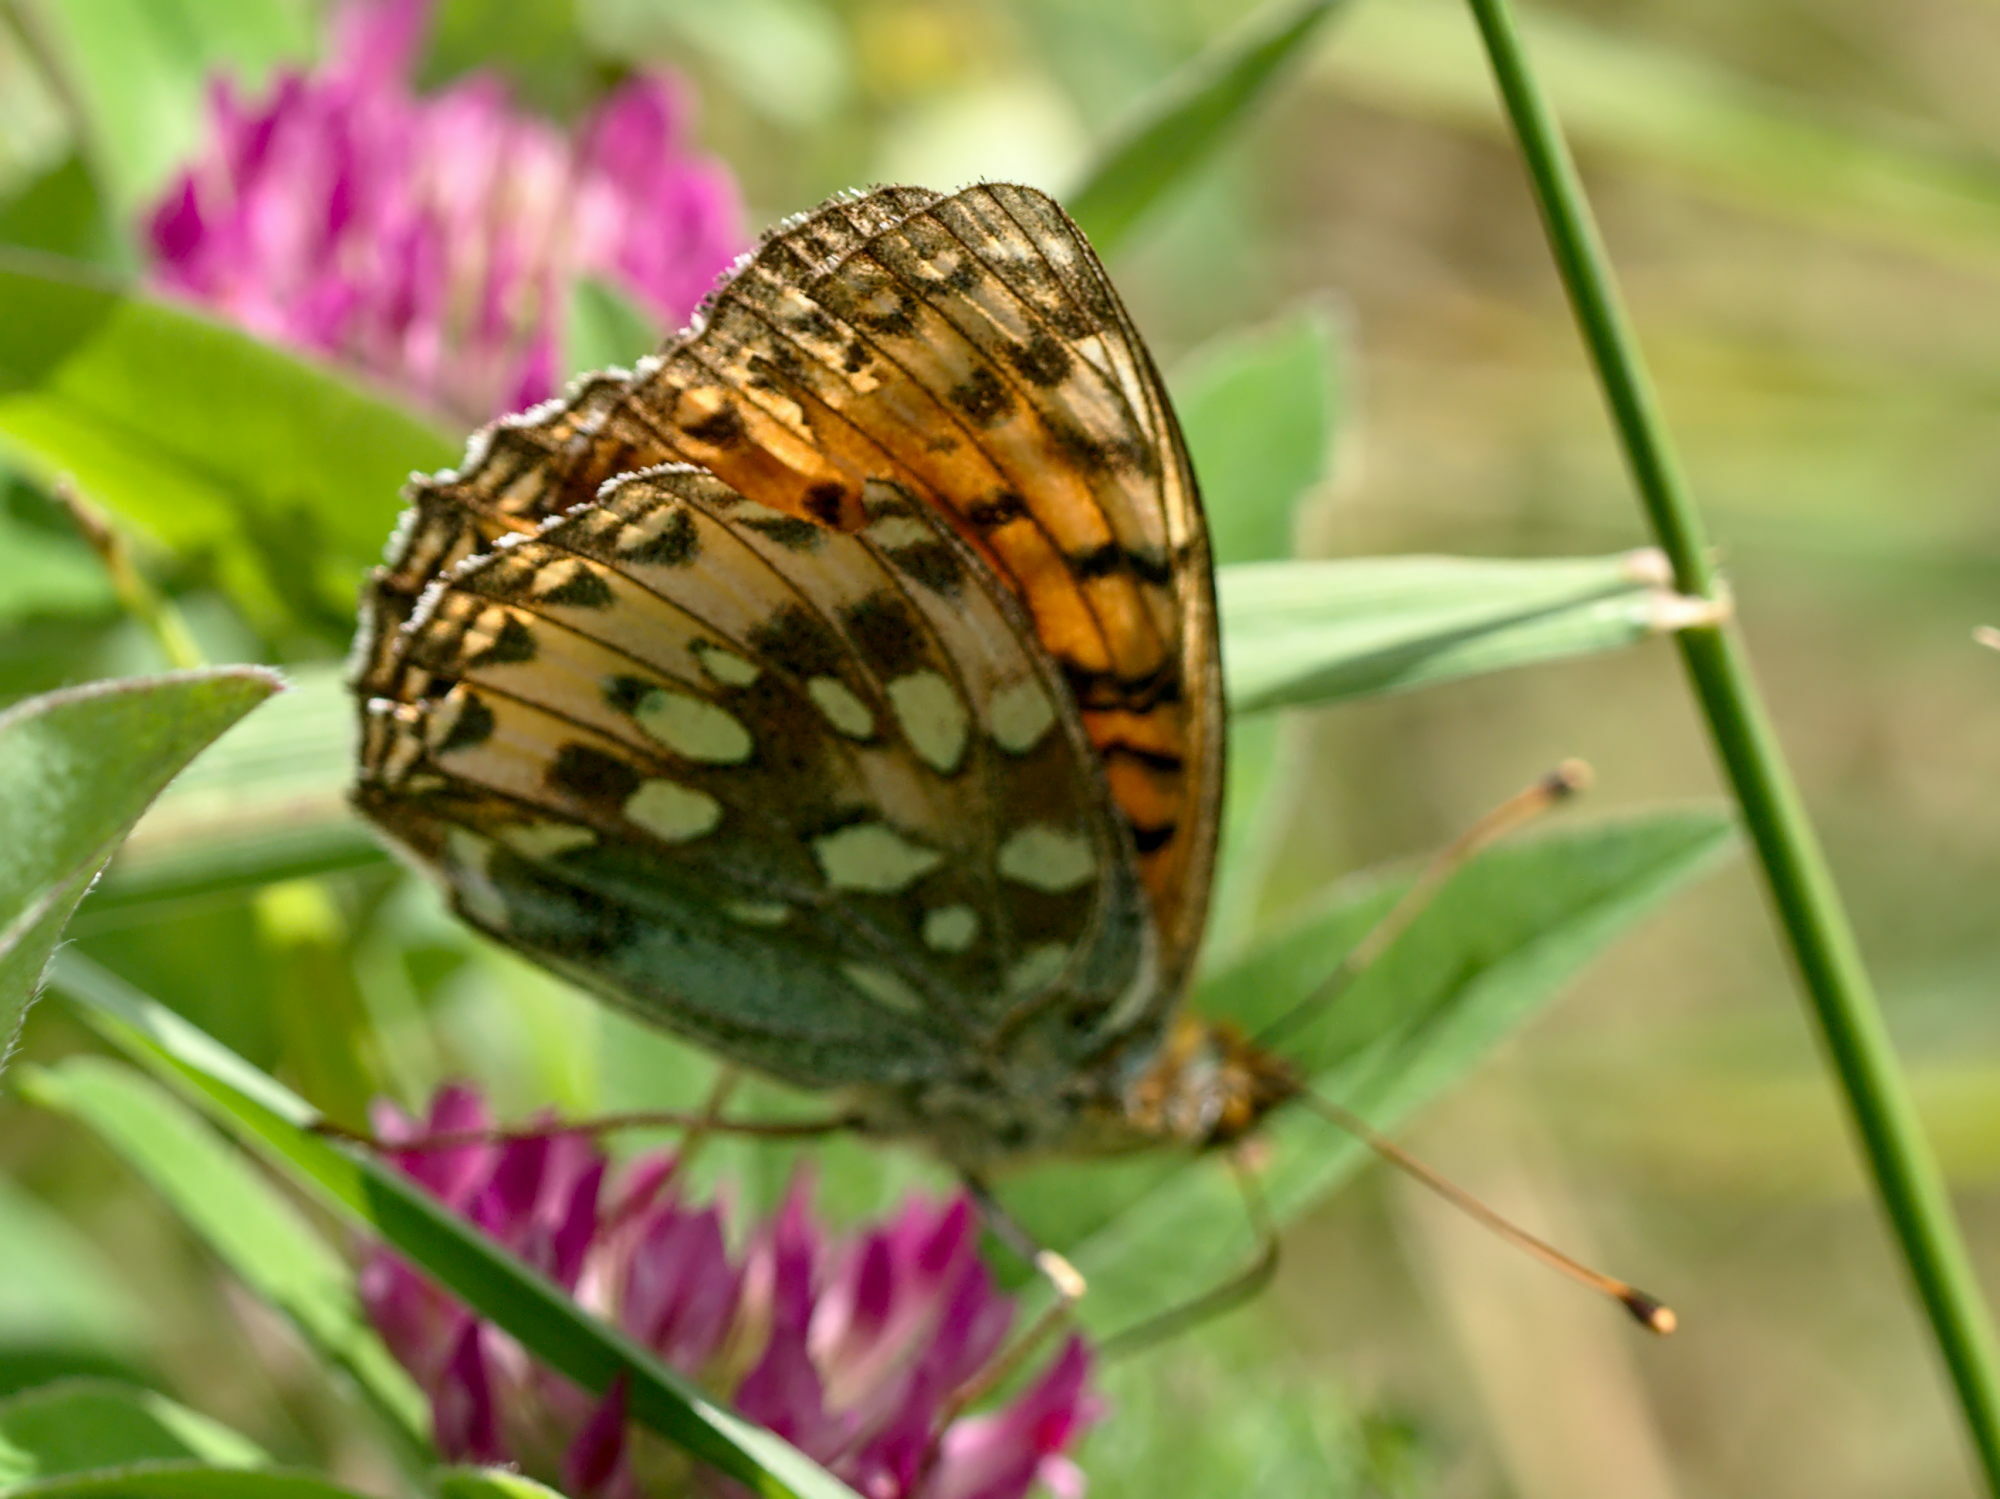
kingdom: Animalia
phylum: Arthropoda
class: Insecta
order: Lepidoptera
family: Nymphalidae
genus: Speyeria
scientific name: Speyeria aglaja
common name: Dark green fritillary
